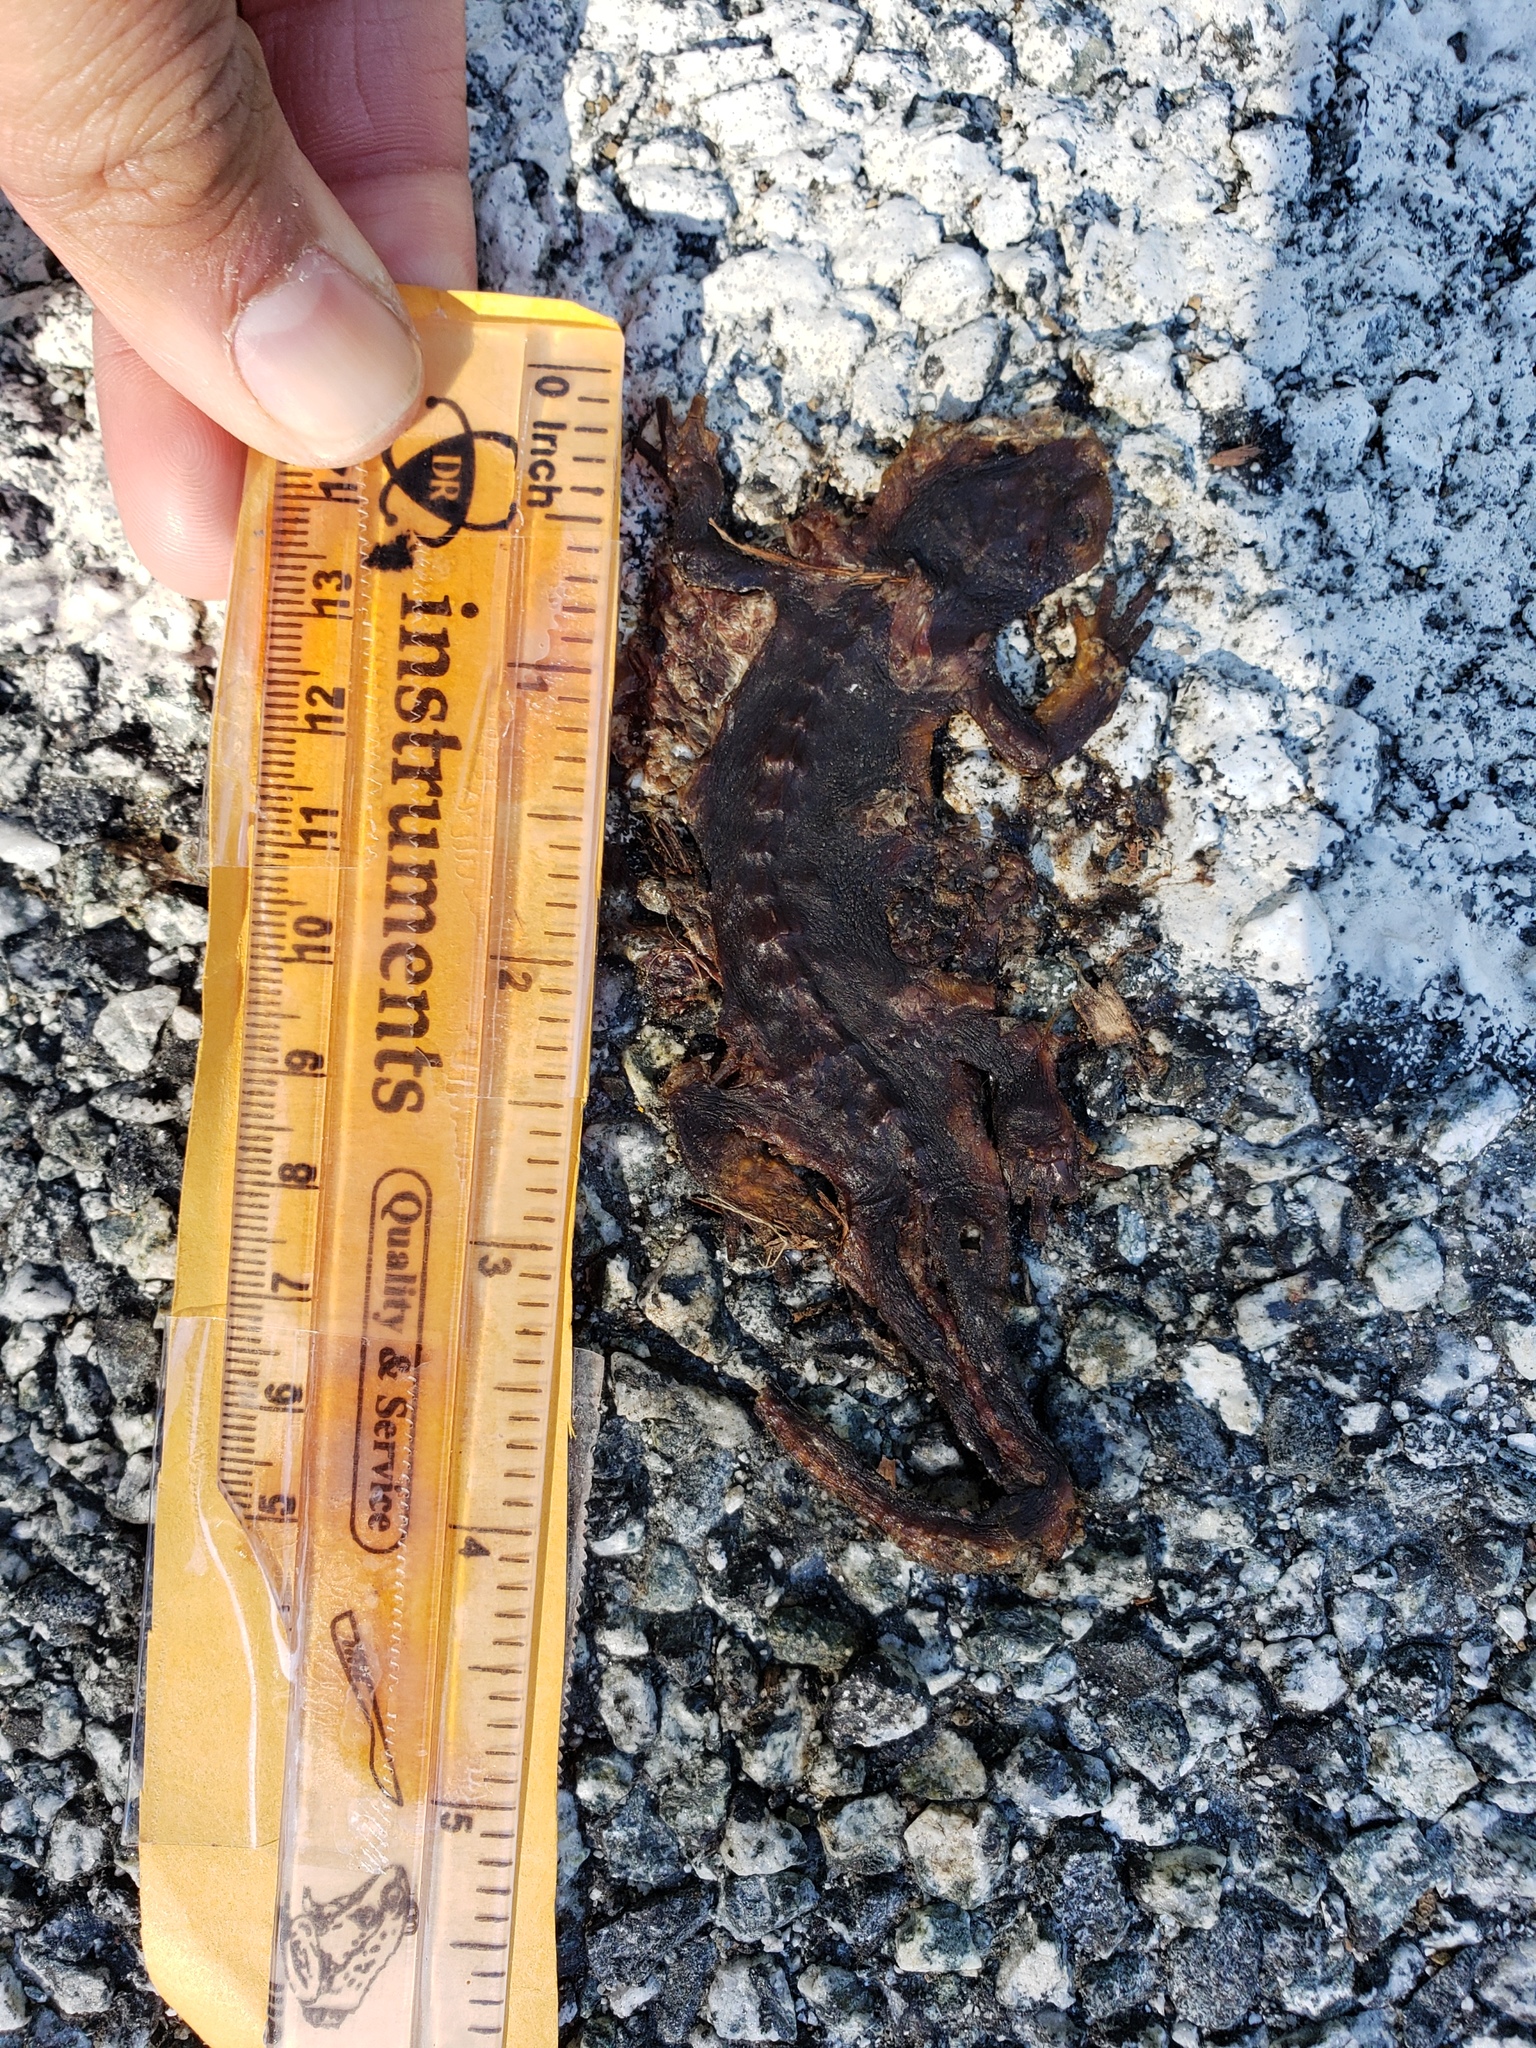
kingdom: Animalia
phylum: Chordata
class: Amphibia
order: Caudata
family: Salamandridae
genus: Taricha
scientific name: Taricha
